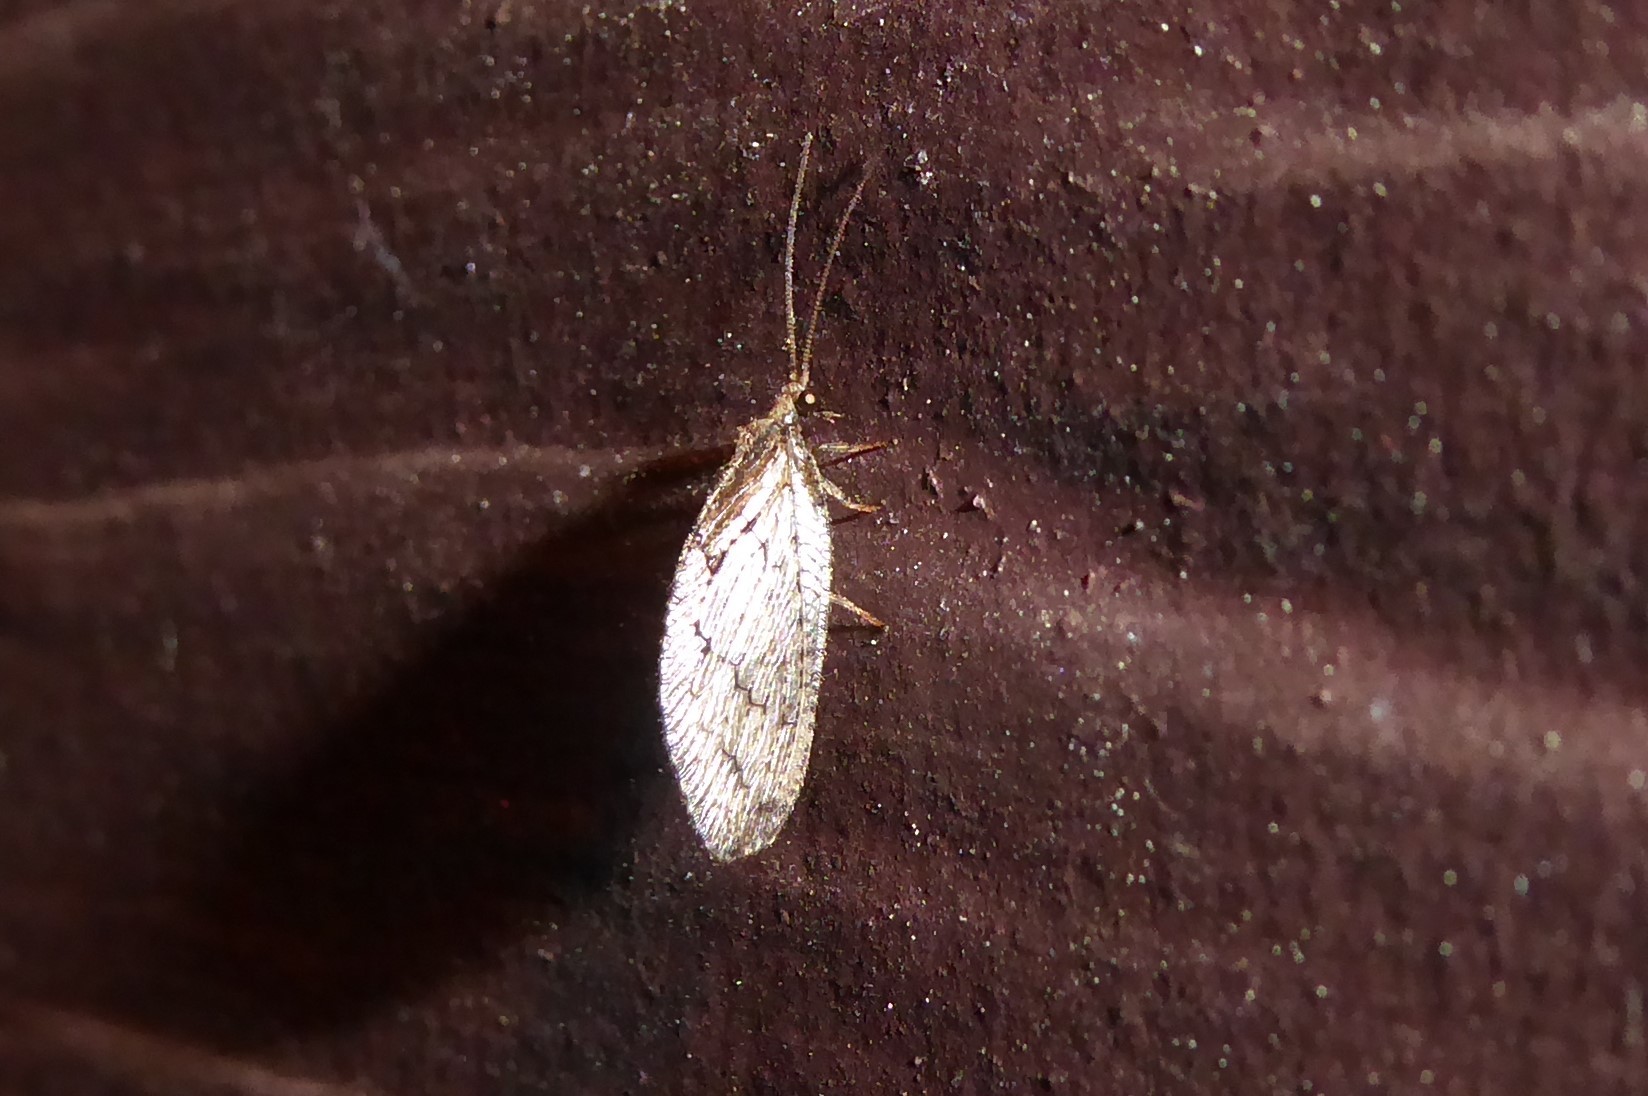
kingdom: Animalia
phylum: Arthropoda
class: Insecta
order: Neuroptera
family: Hemerobiidae
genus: Wesmaelius
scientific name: Wesmaelius subnebulosus
